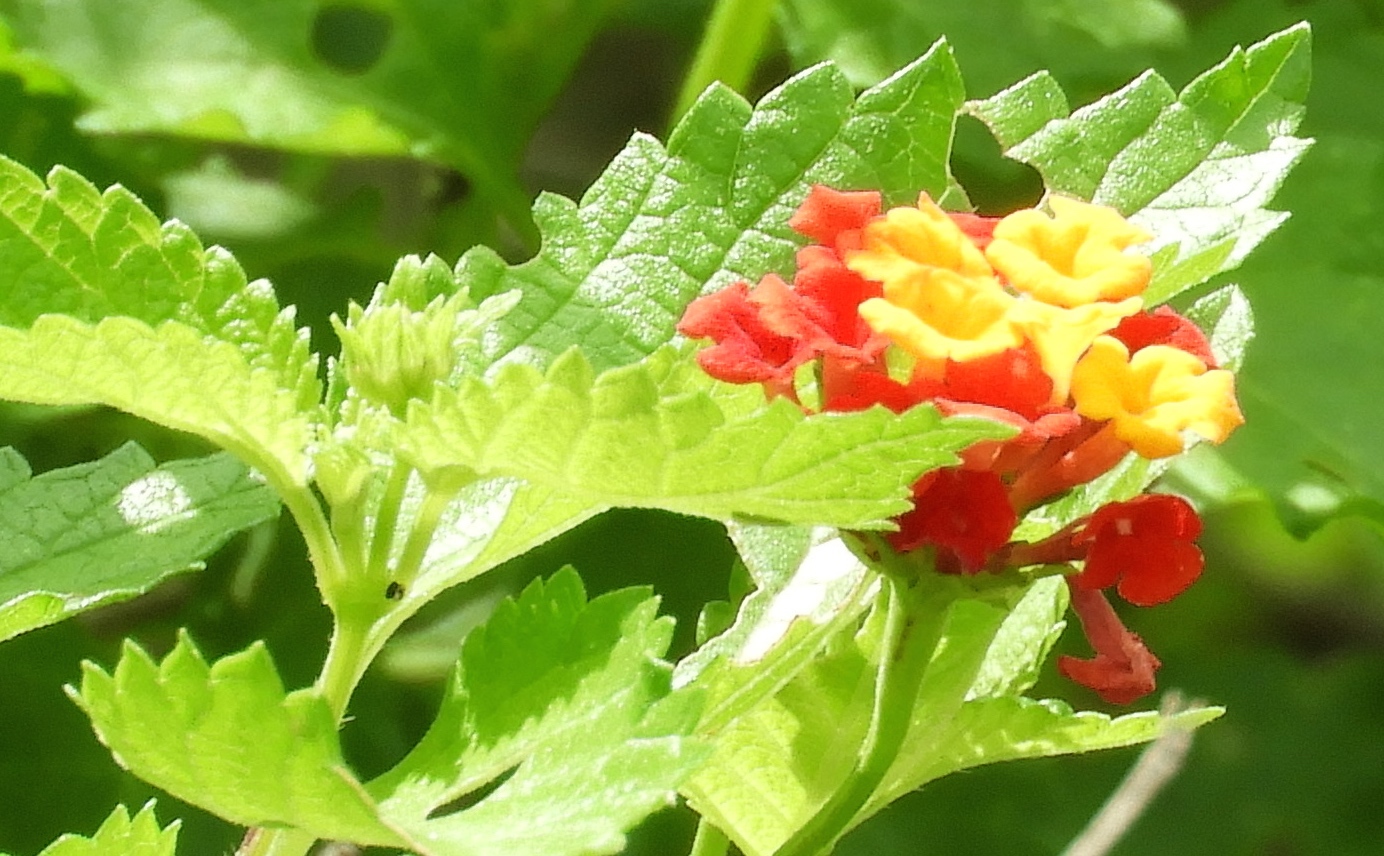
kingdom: Plantae
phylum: Tracheophyta
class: Magnoliopsida
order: Lamiales
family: Verbenaceae
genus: Lantana
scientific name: Lantana camara
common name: Lantana
